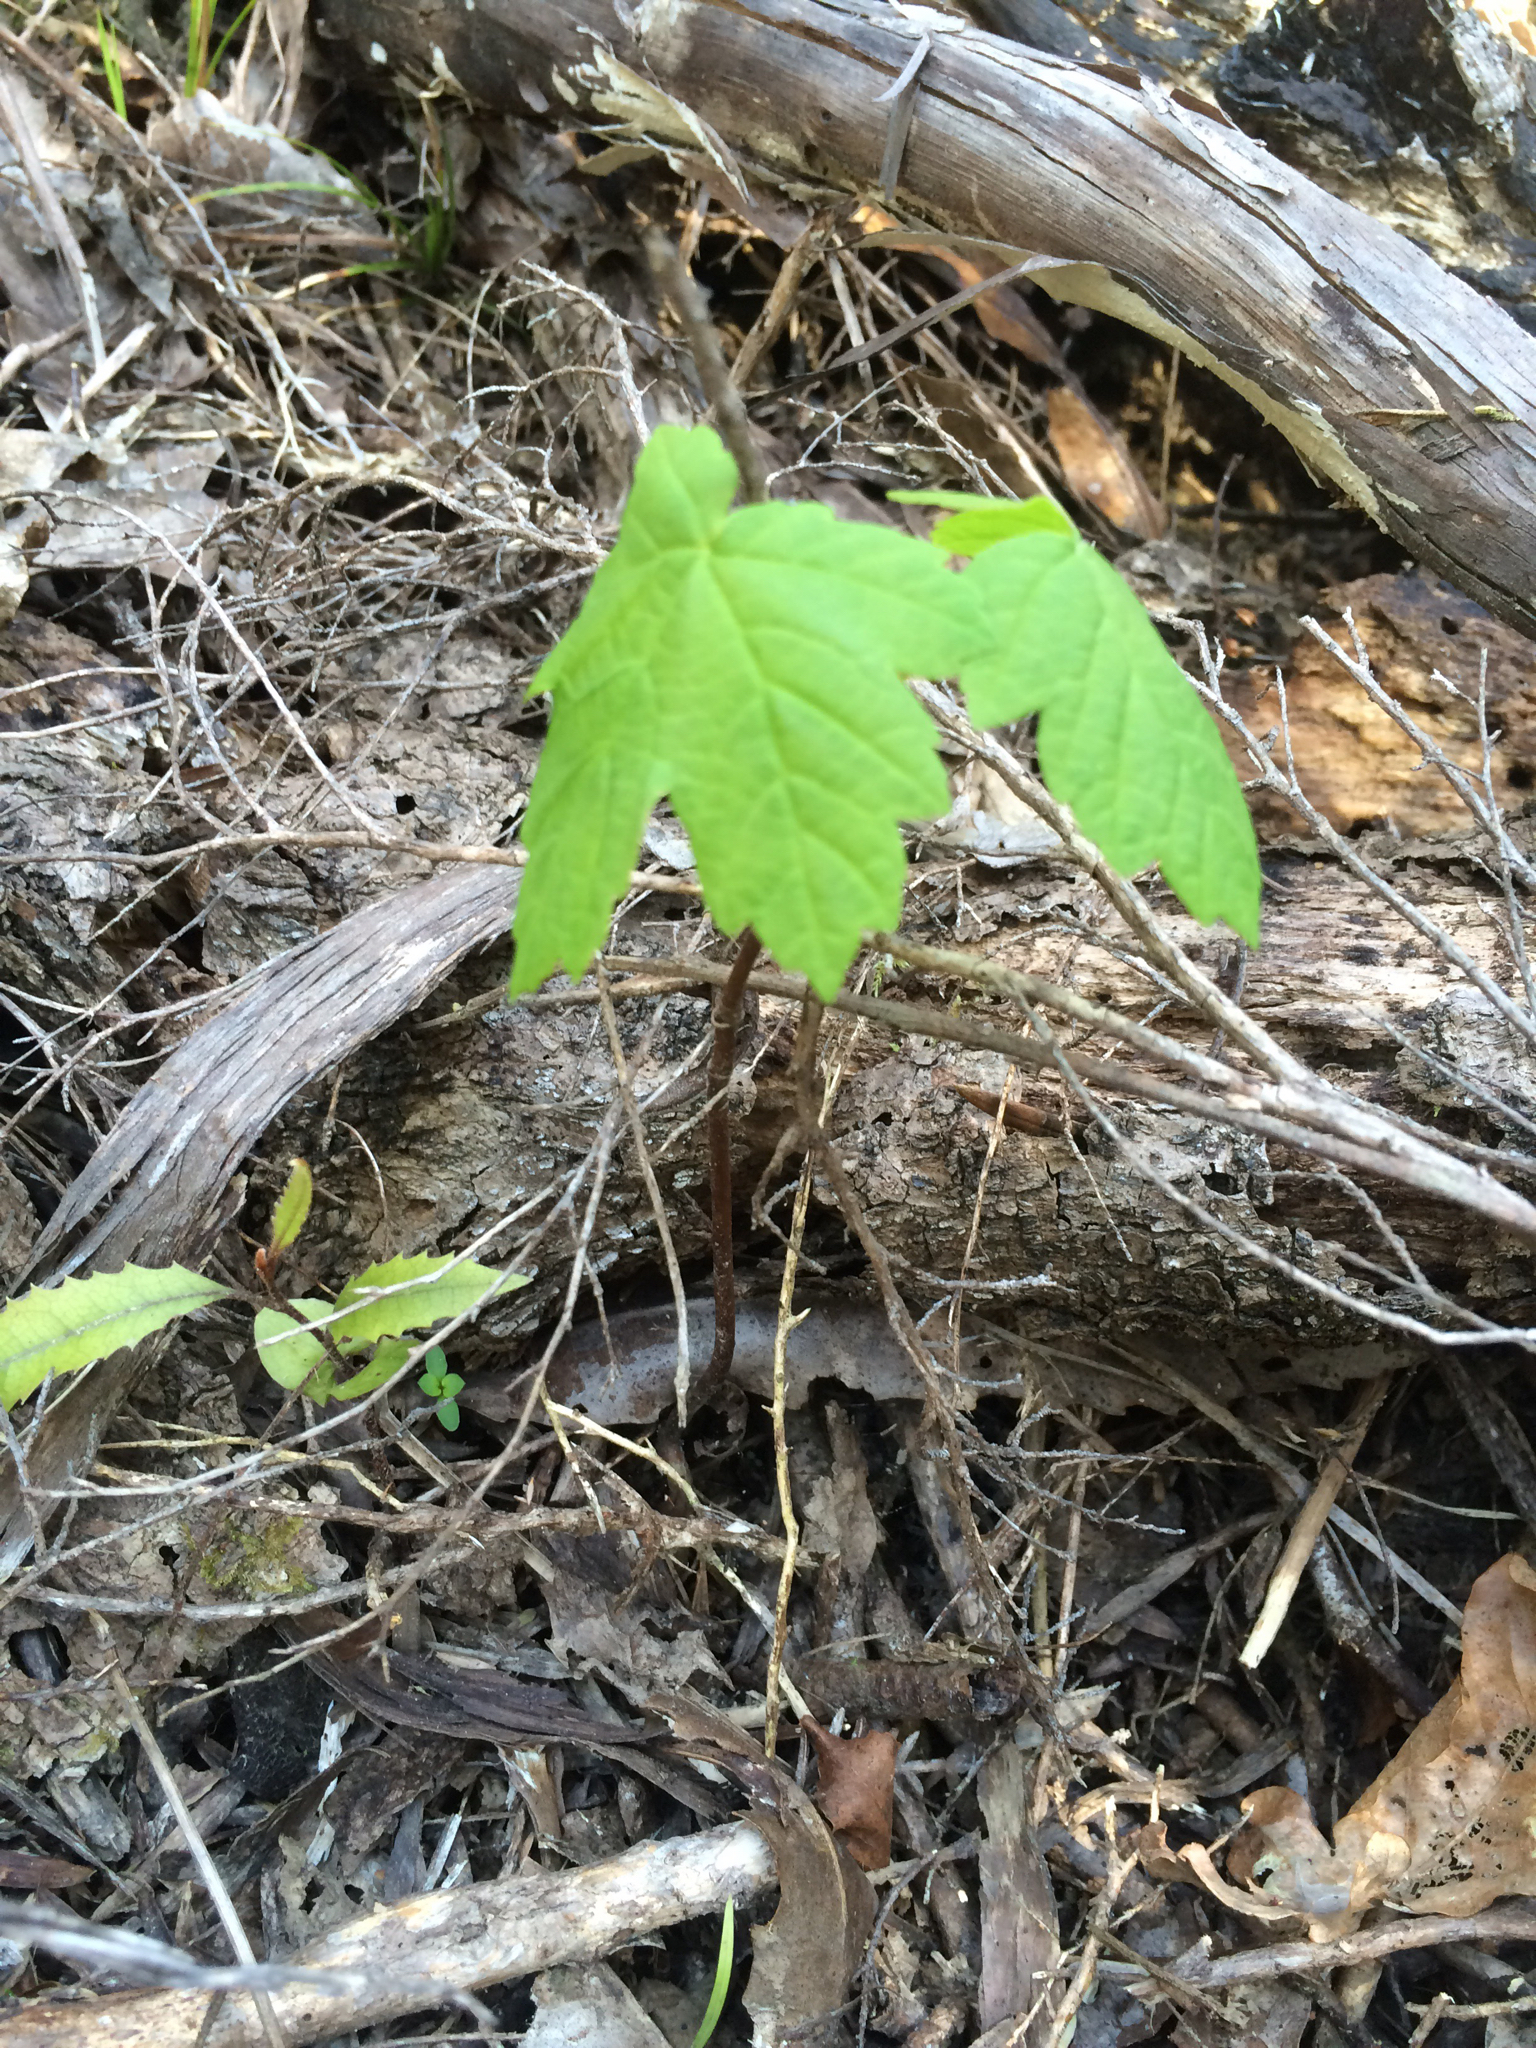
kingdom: Plantae
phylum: Tracheophyta
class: Magnoliopsida
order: Sapindales
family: Sapindaceae
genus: Acer
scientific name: Acer pseudoplatanus
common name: Sycamore
